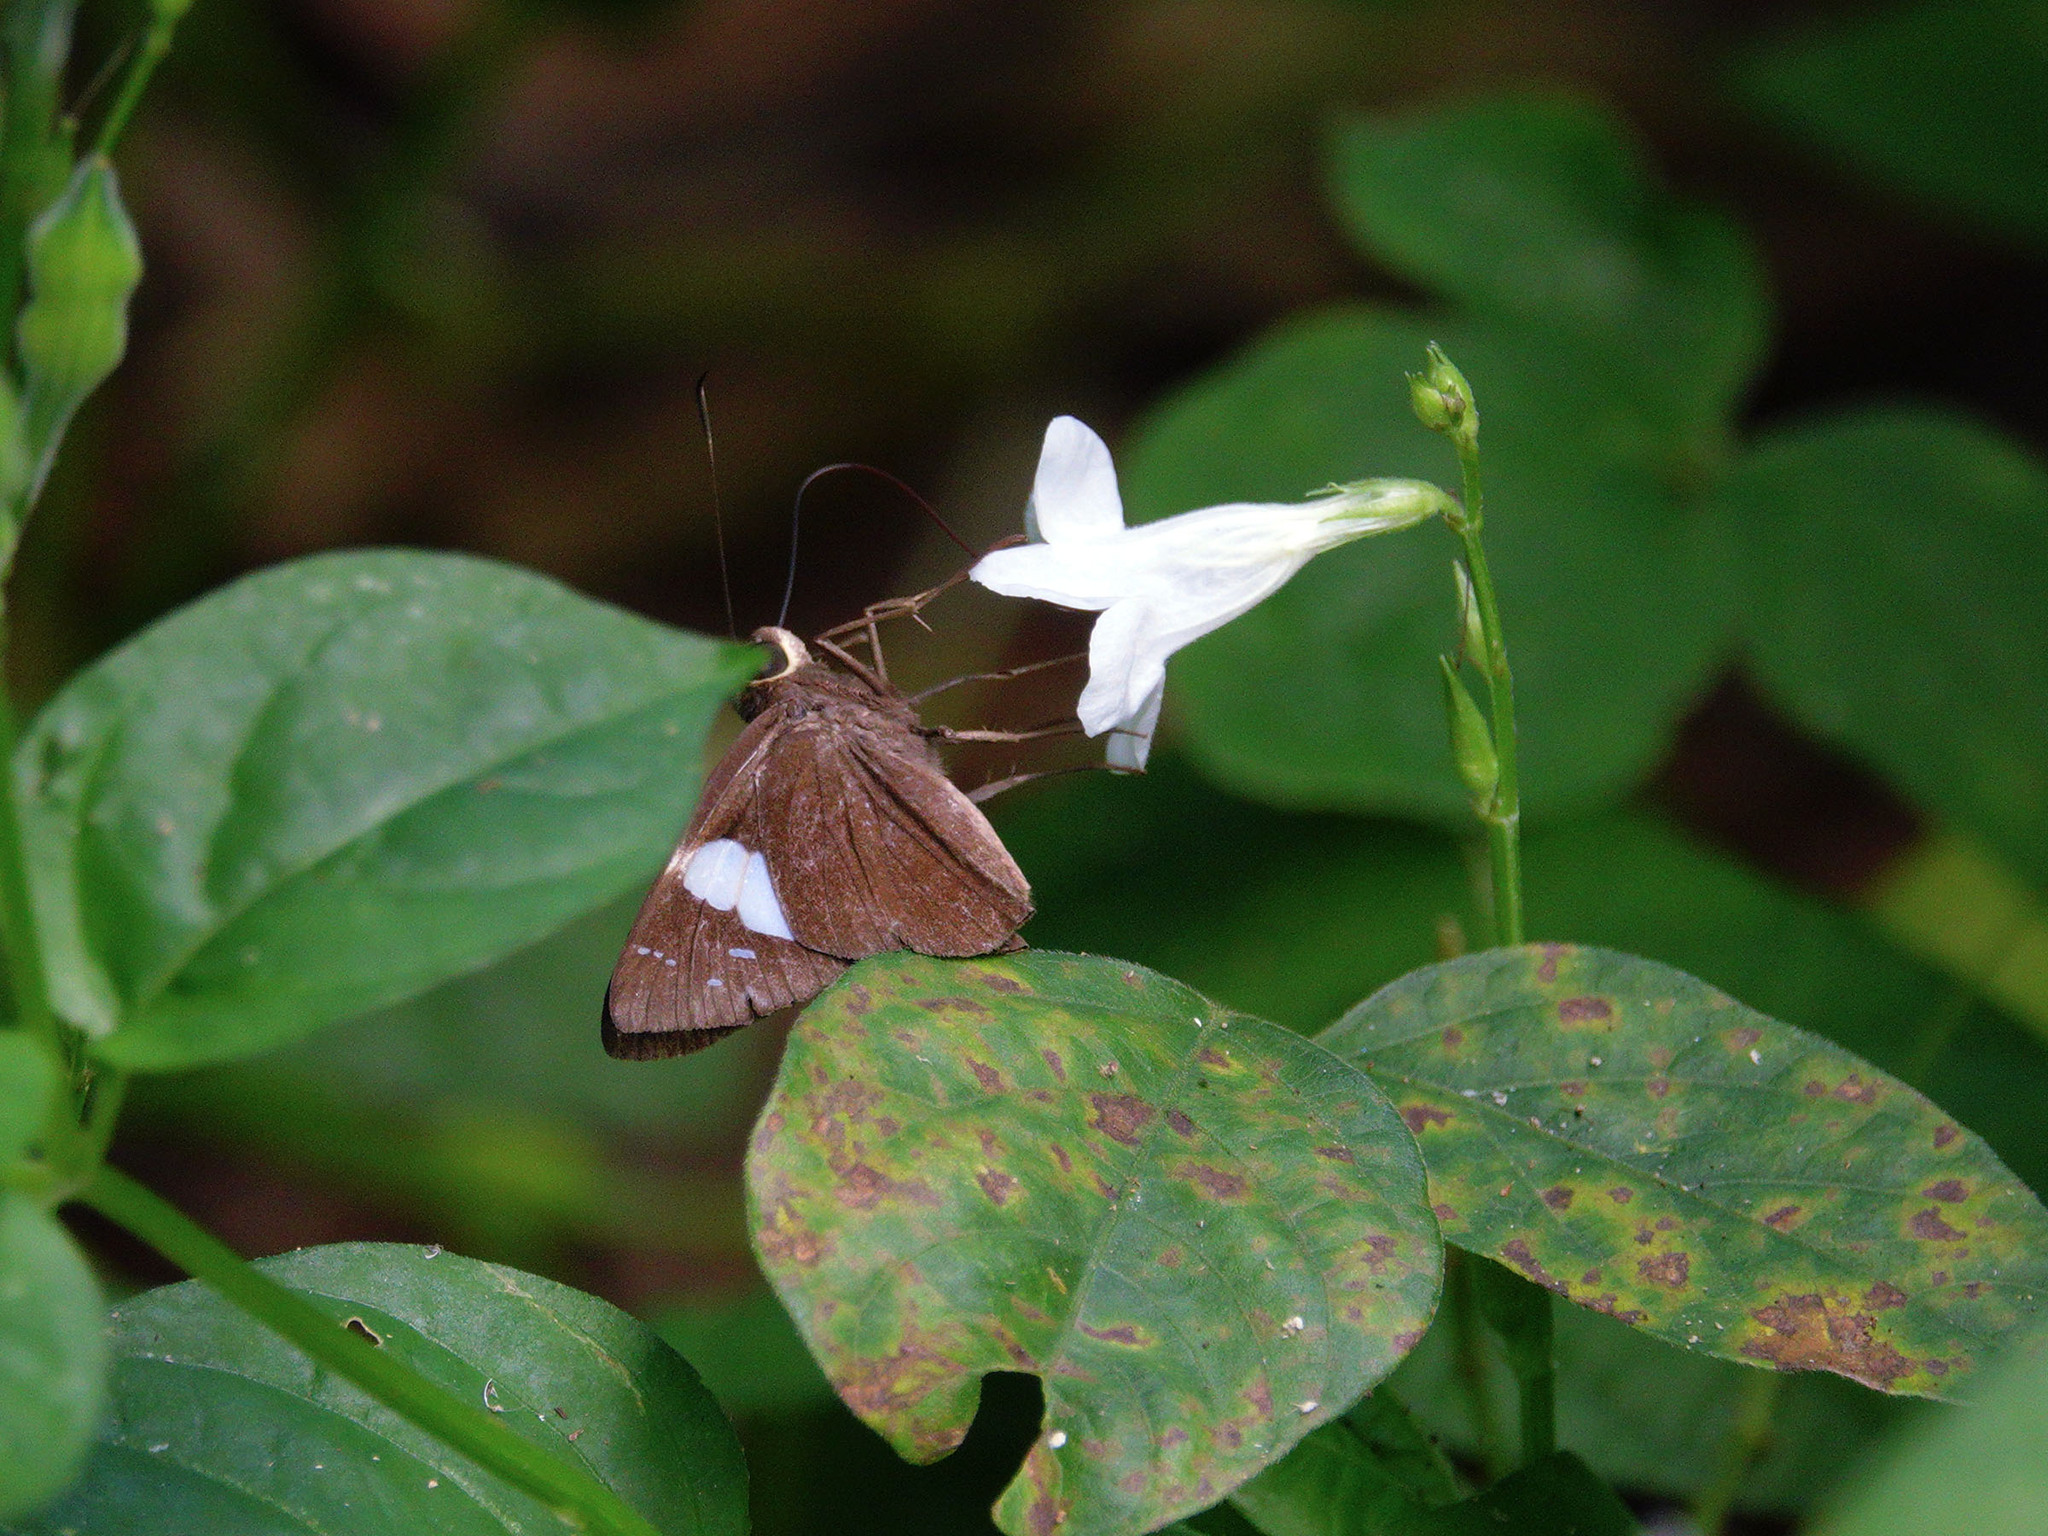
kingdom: Animalia
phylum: Arthropoda
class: Insecta
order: Lepidoptera
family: Hesperiidae
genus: Notocrypta
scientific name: Notocrypta feisthamelii
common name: Spotted demon
